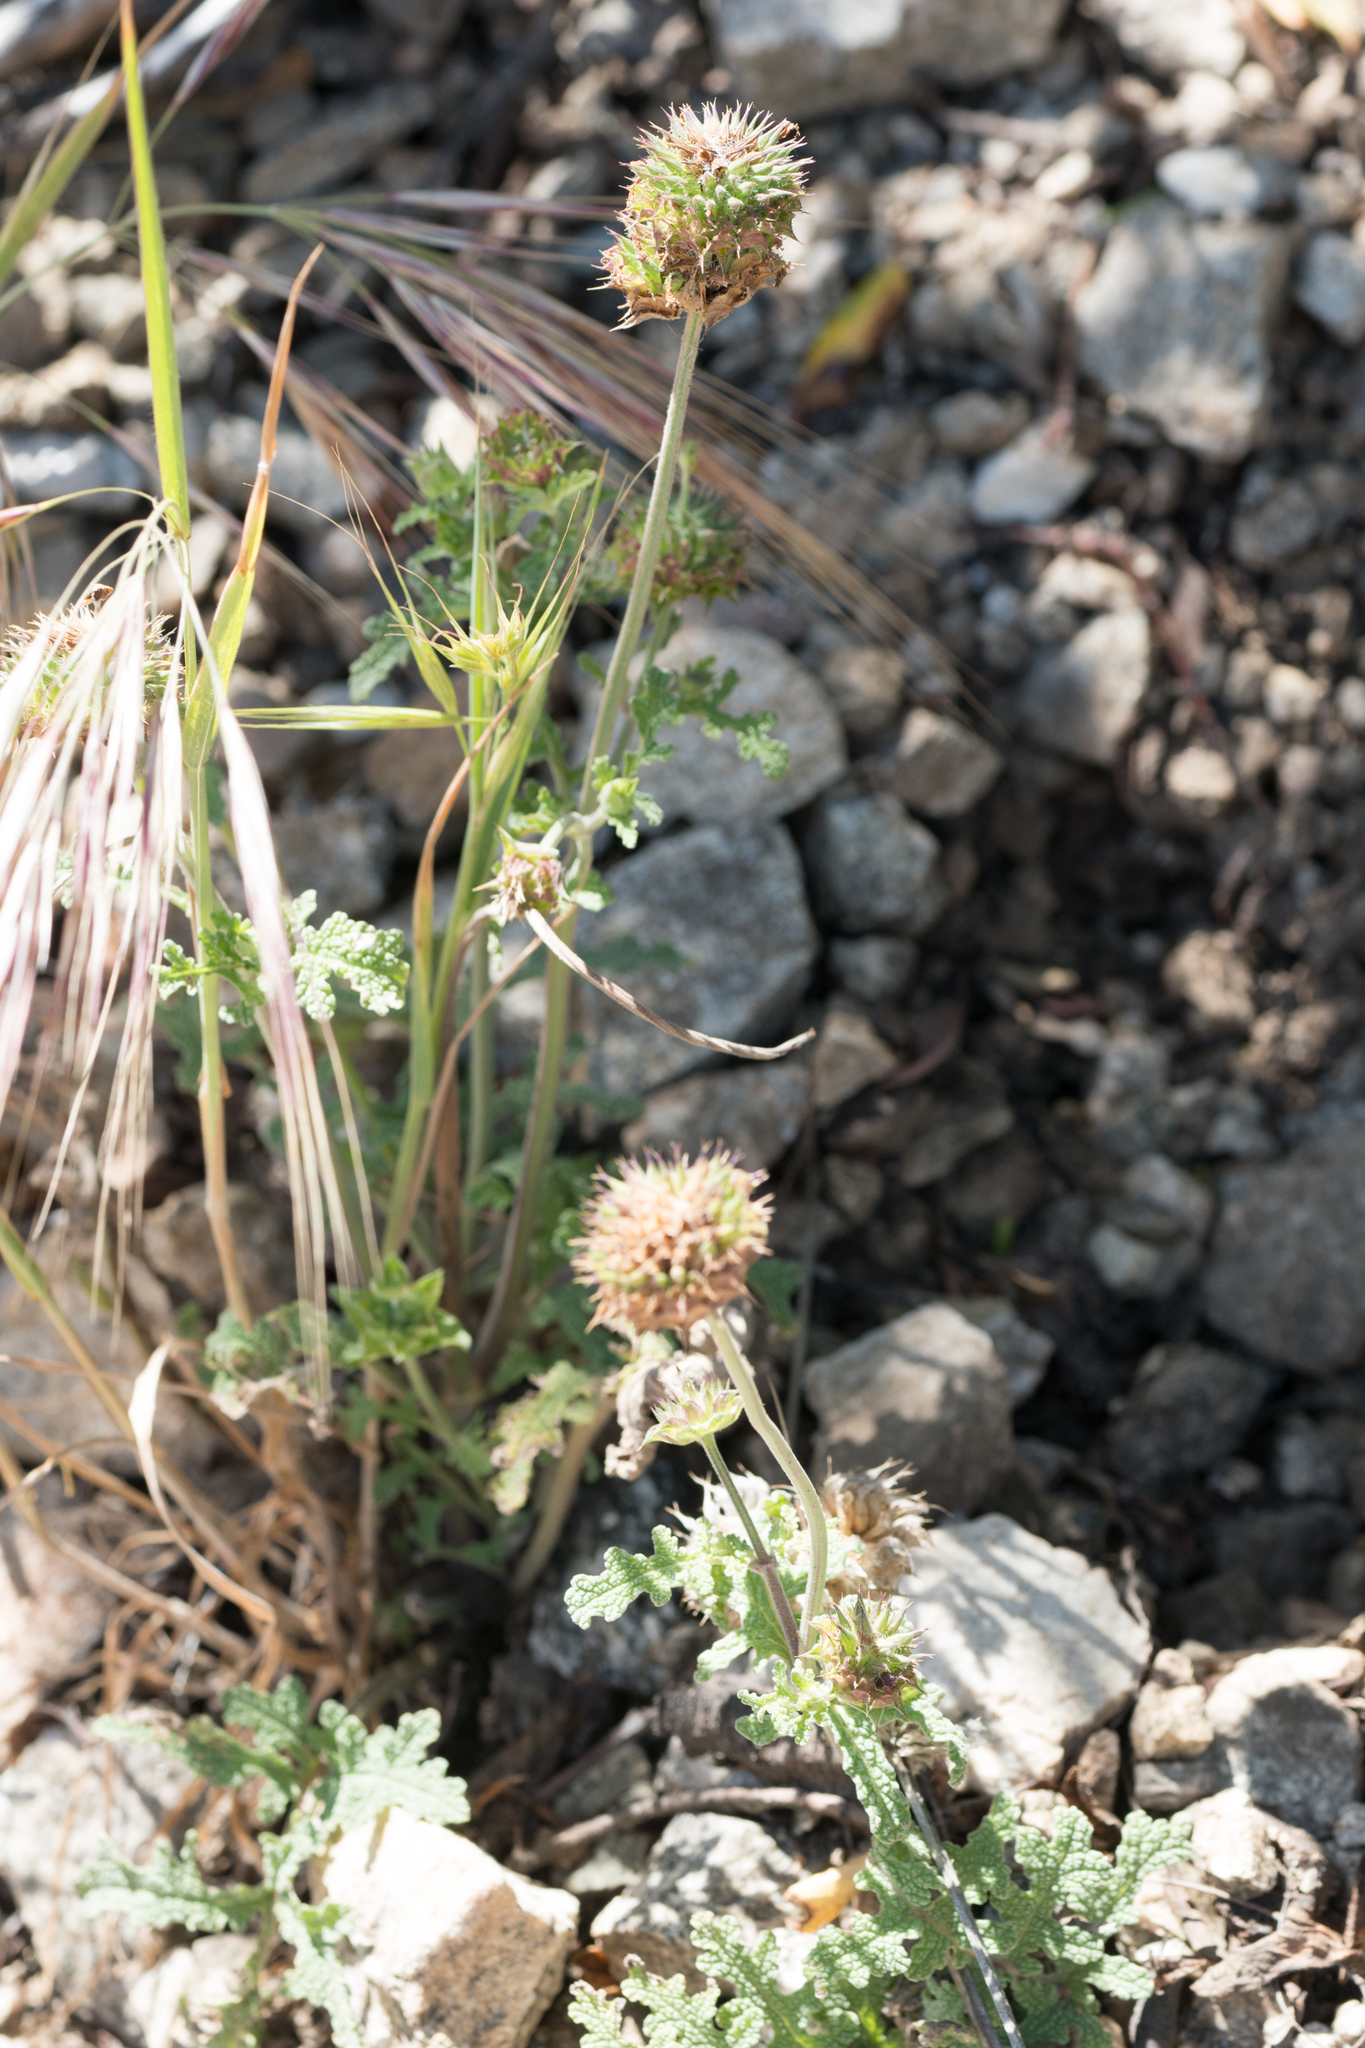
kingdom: Plantae
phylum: Tracheophyta
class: Magnoliopsida
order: Lamiales
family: Lamiaceae
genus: Salvia
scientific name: Salvia columbariae
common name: Chia
